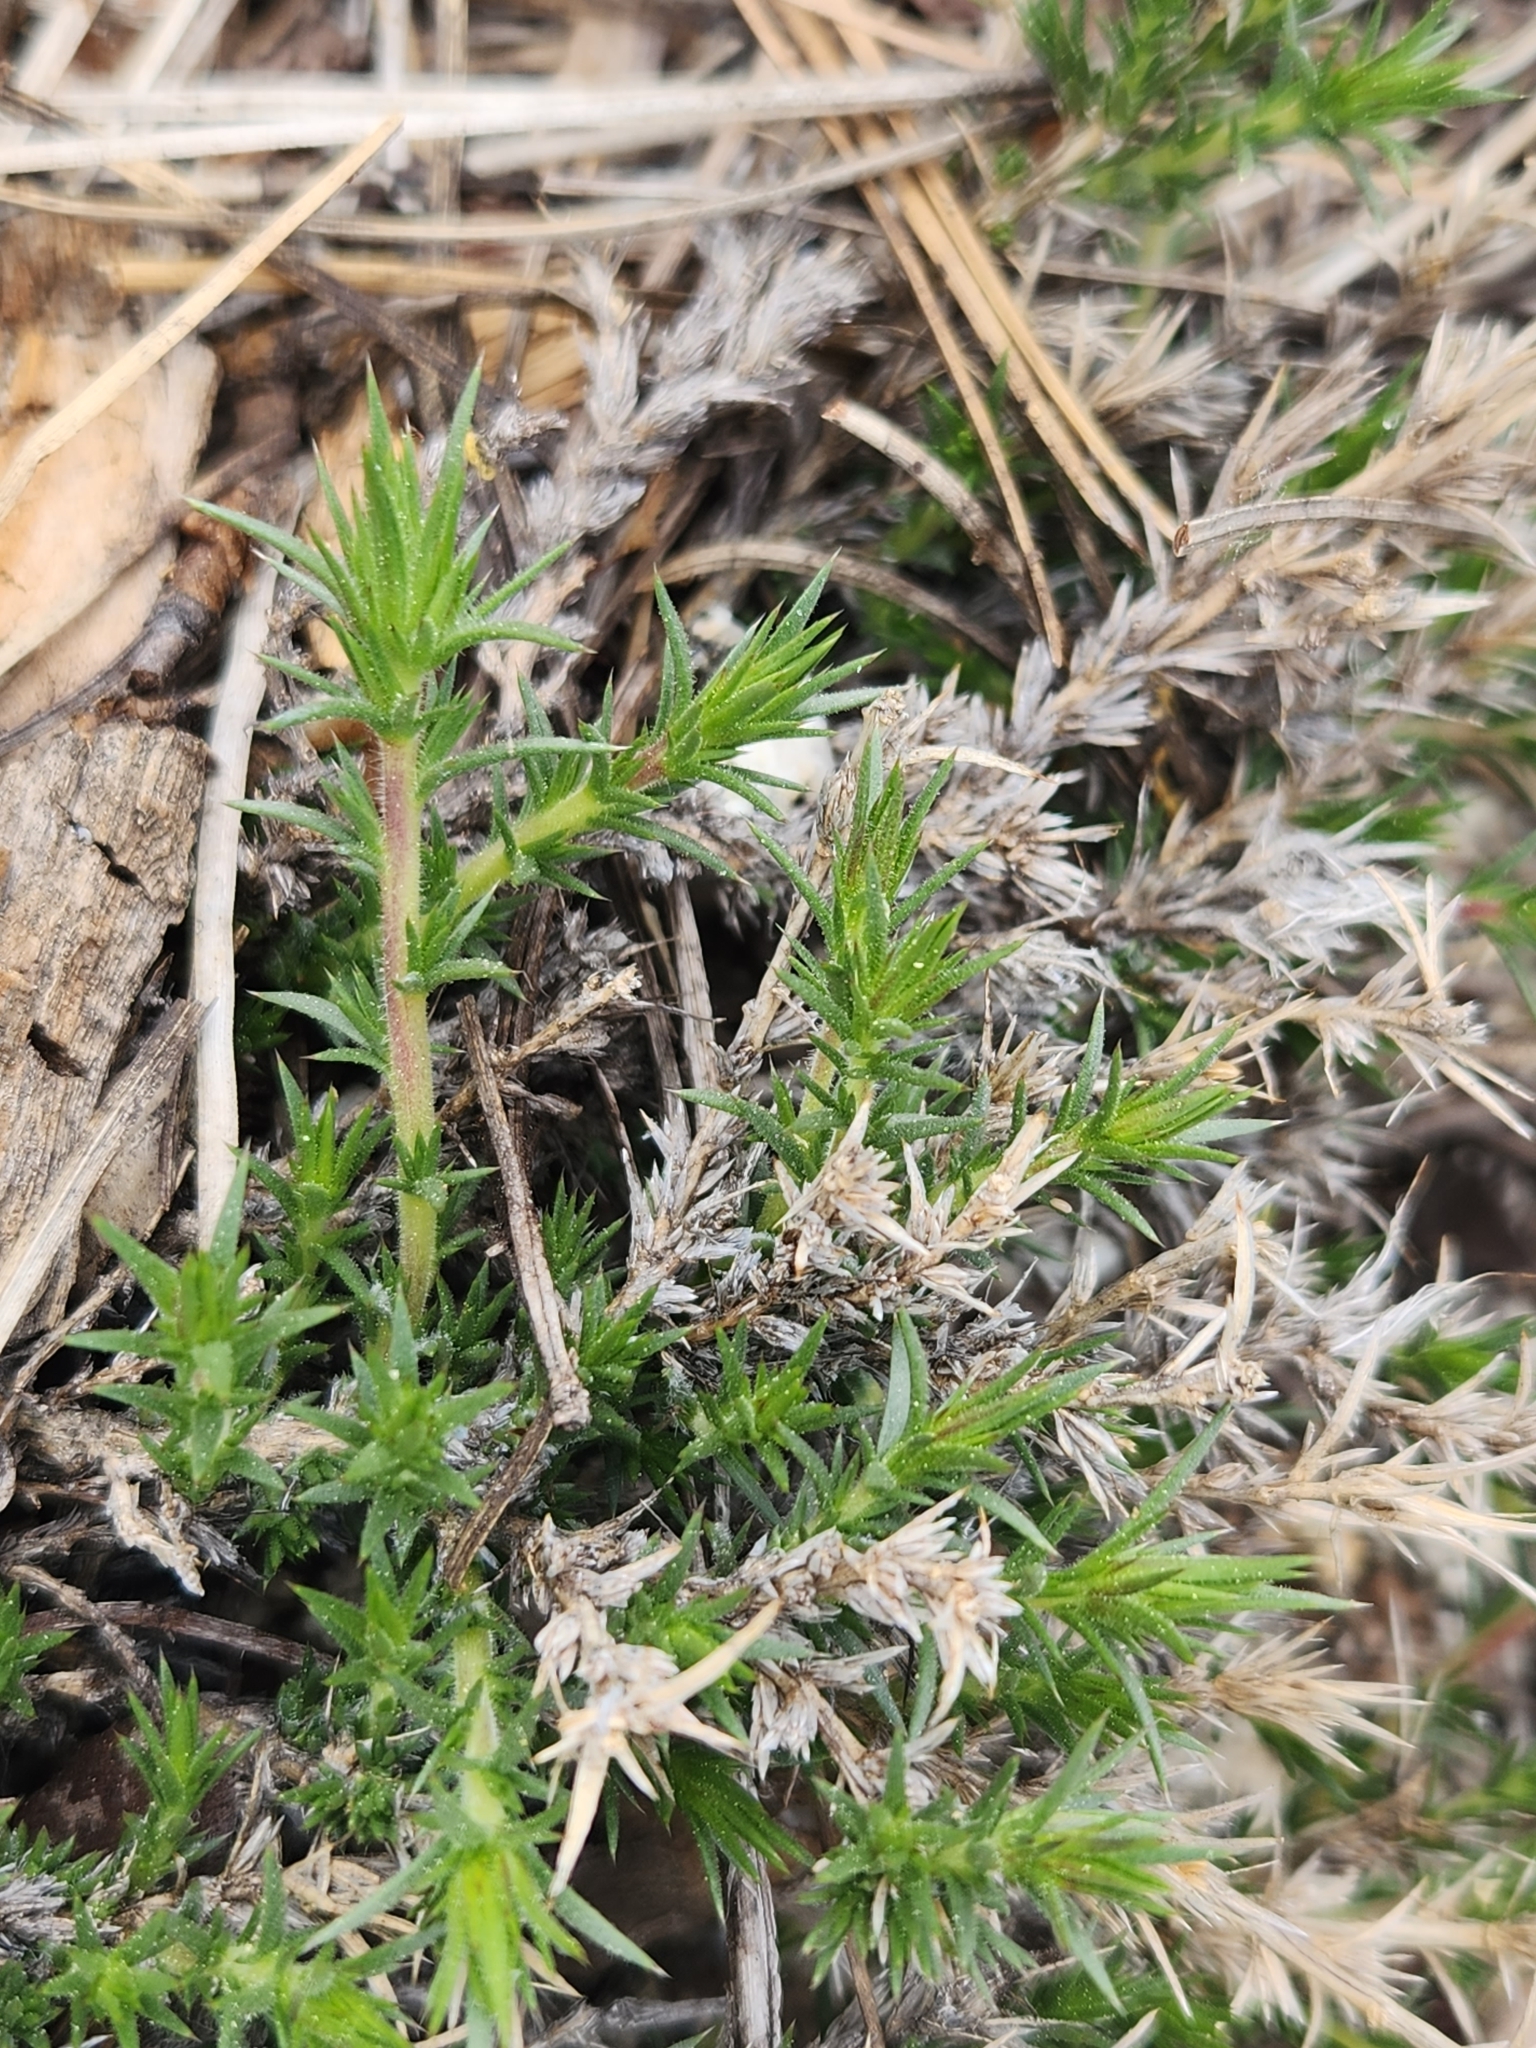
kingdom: Plantae
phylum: Tracheophyta
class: Magnoliopsida
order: Ericales
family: Polemoniaceae
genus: Linanthus
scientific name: Linanthus pungens
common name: Granite prickly phlox
